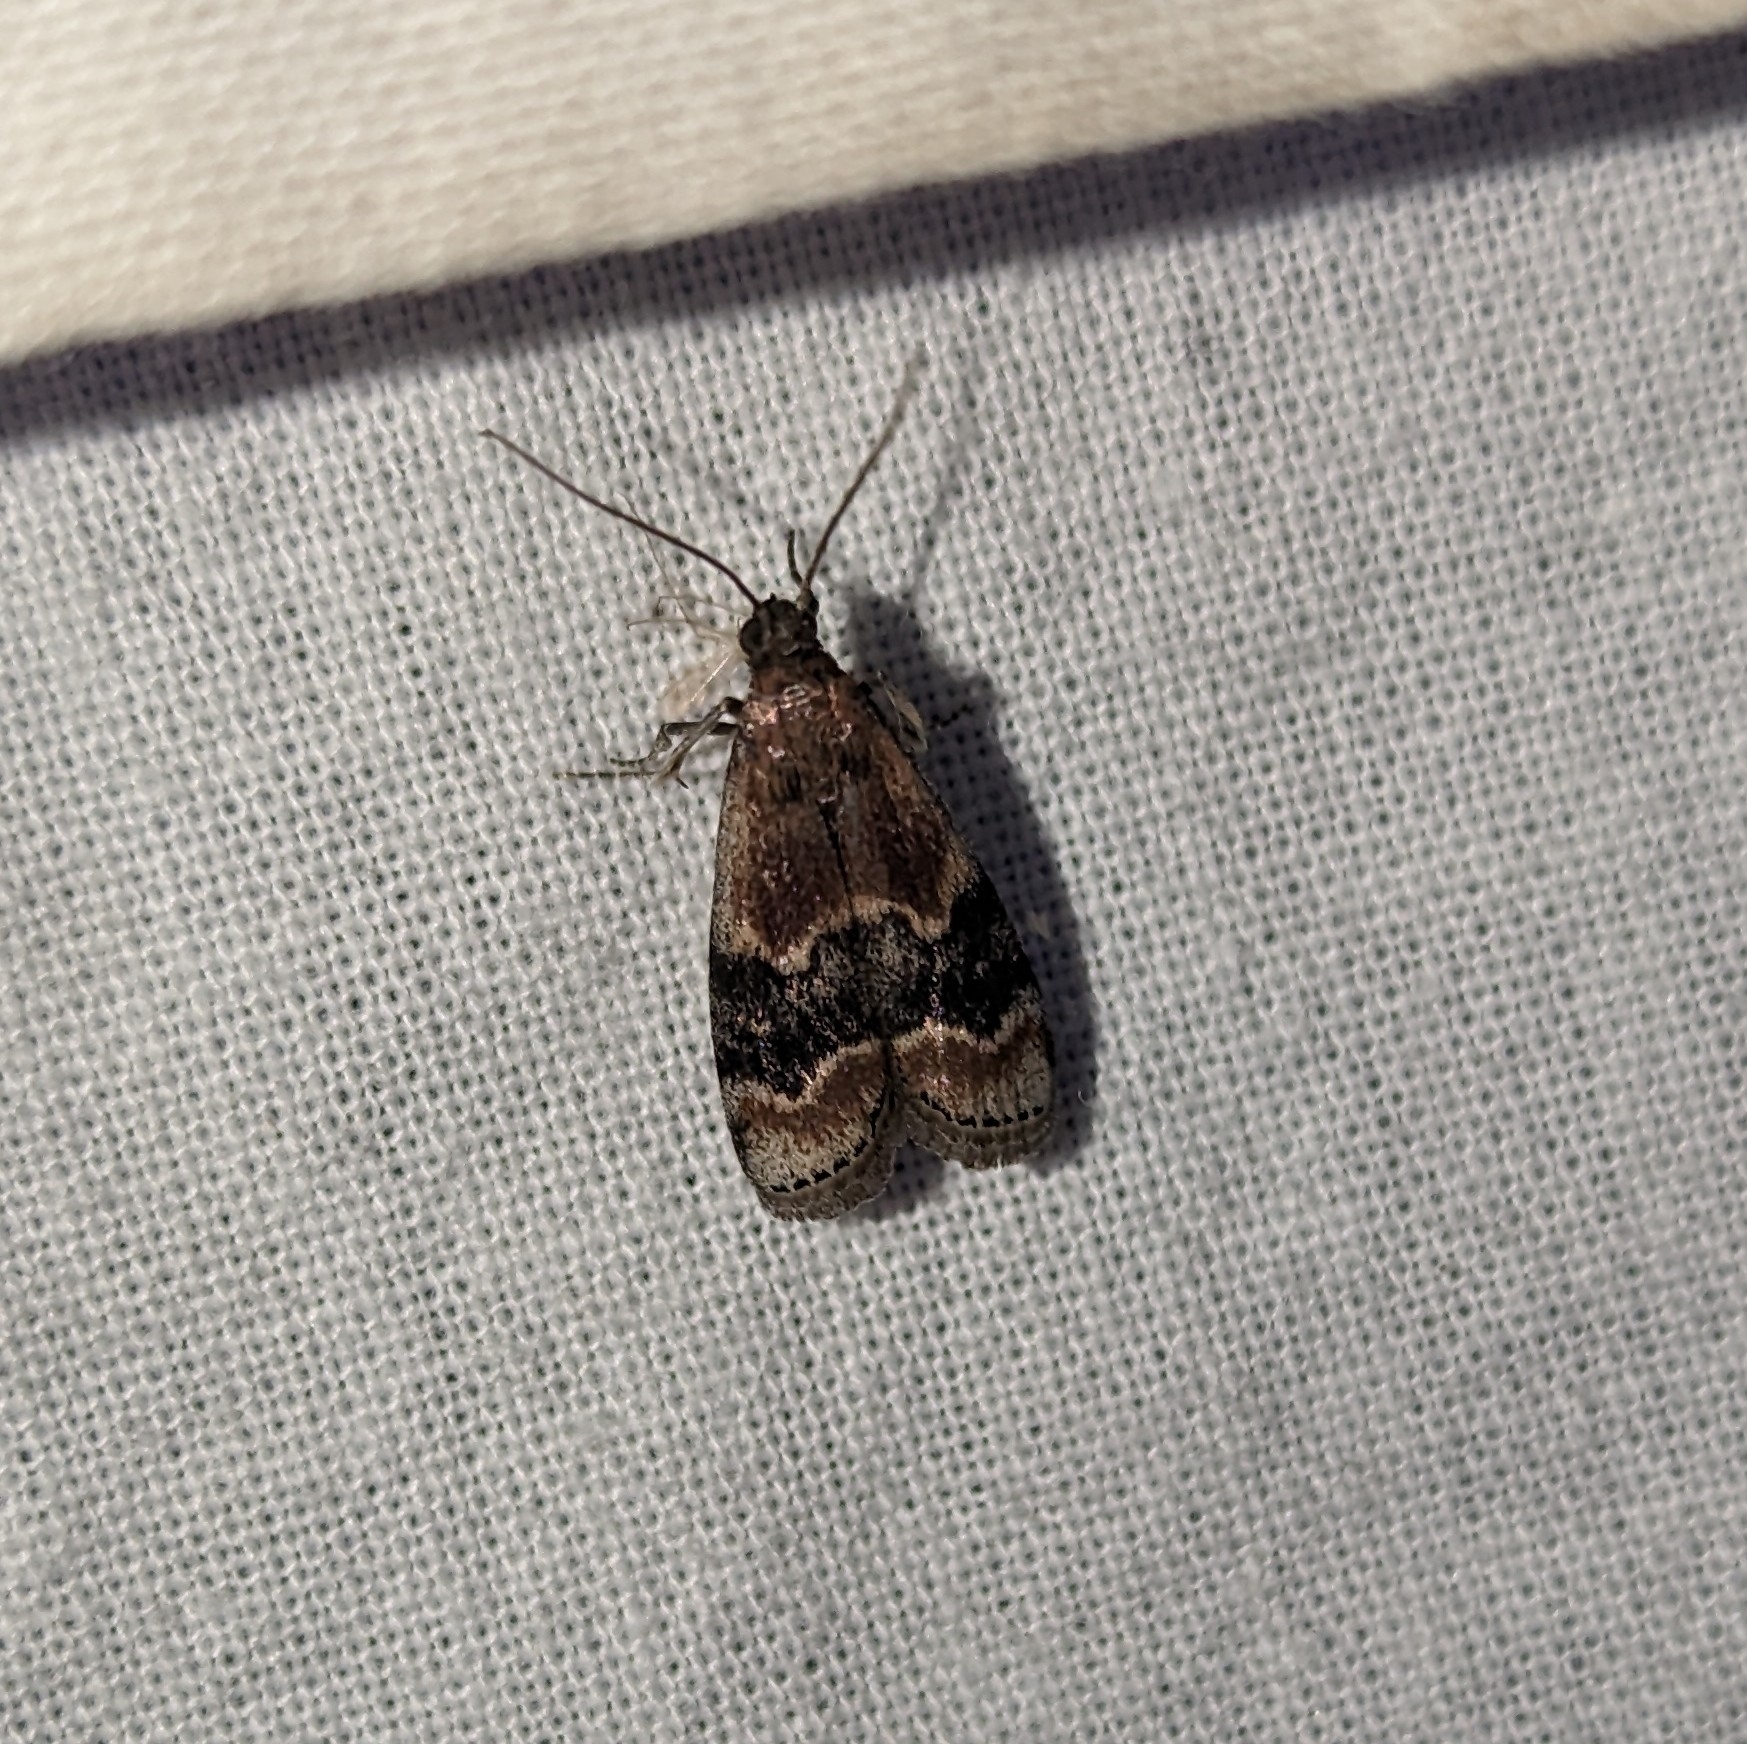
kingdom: Animalia
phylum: Arthropoda
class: Insecta
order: Lepidoptera
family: Pyralidae
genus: Euzophera
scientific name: Euzophera semifuneralis
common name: American plum borer moth
